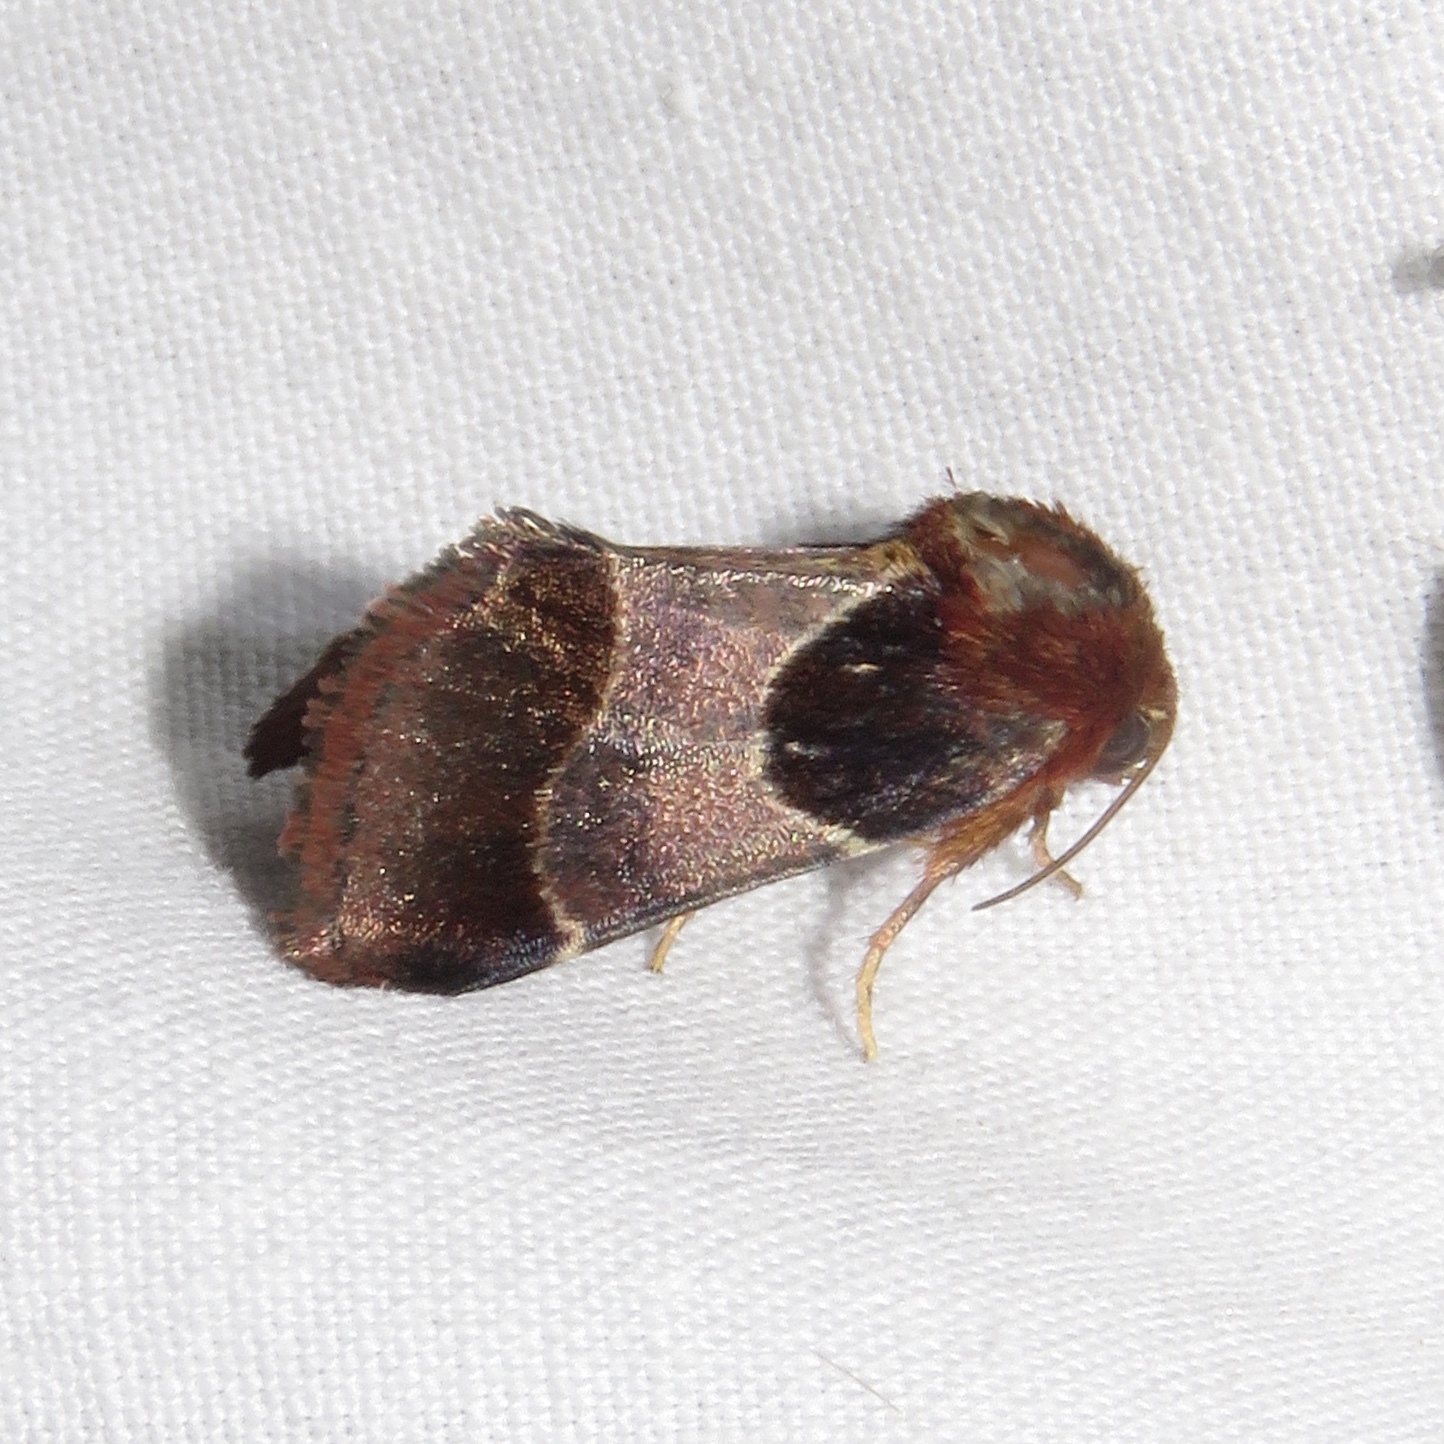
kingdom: Animalia
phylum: Arthropoda
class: Insecta
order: Lepidoptera
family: Noctuidae
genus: Schinia
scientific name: Schinia arcigera
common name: Arcigera flower moth
